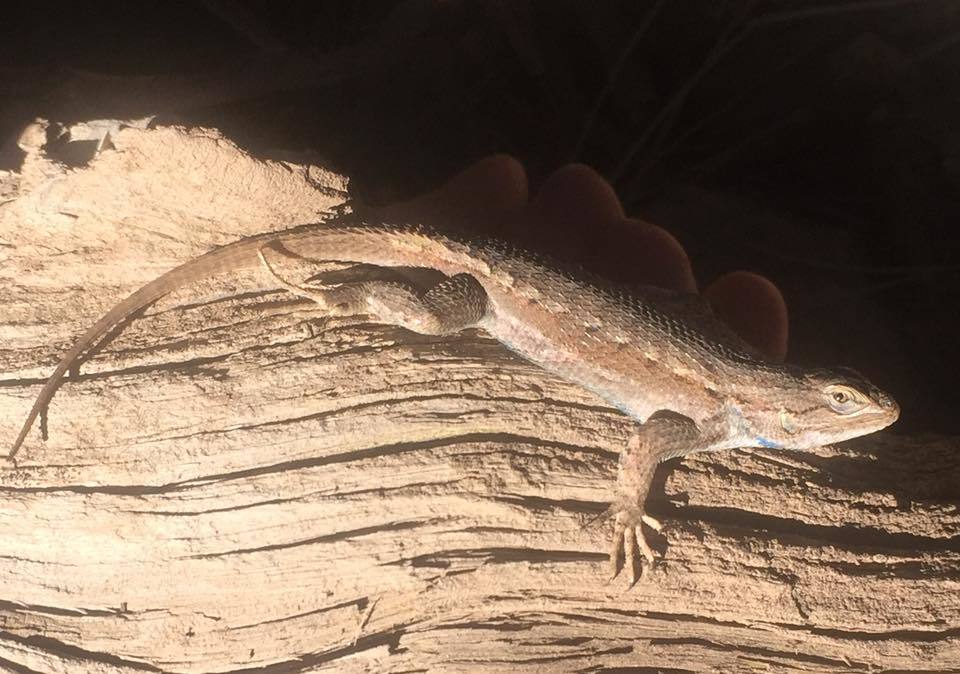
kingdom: Animalia
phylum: Chordata
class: Squamata
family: Phrynosomatidae
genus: Sceloporus
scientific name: Sceloporus tristichus
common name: Plateau fence lizard
